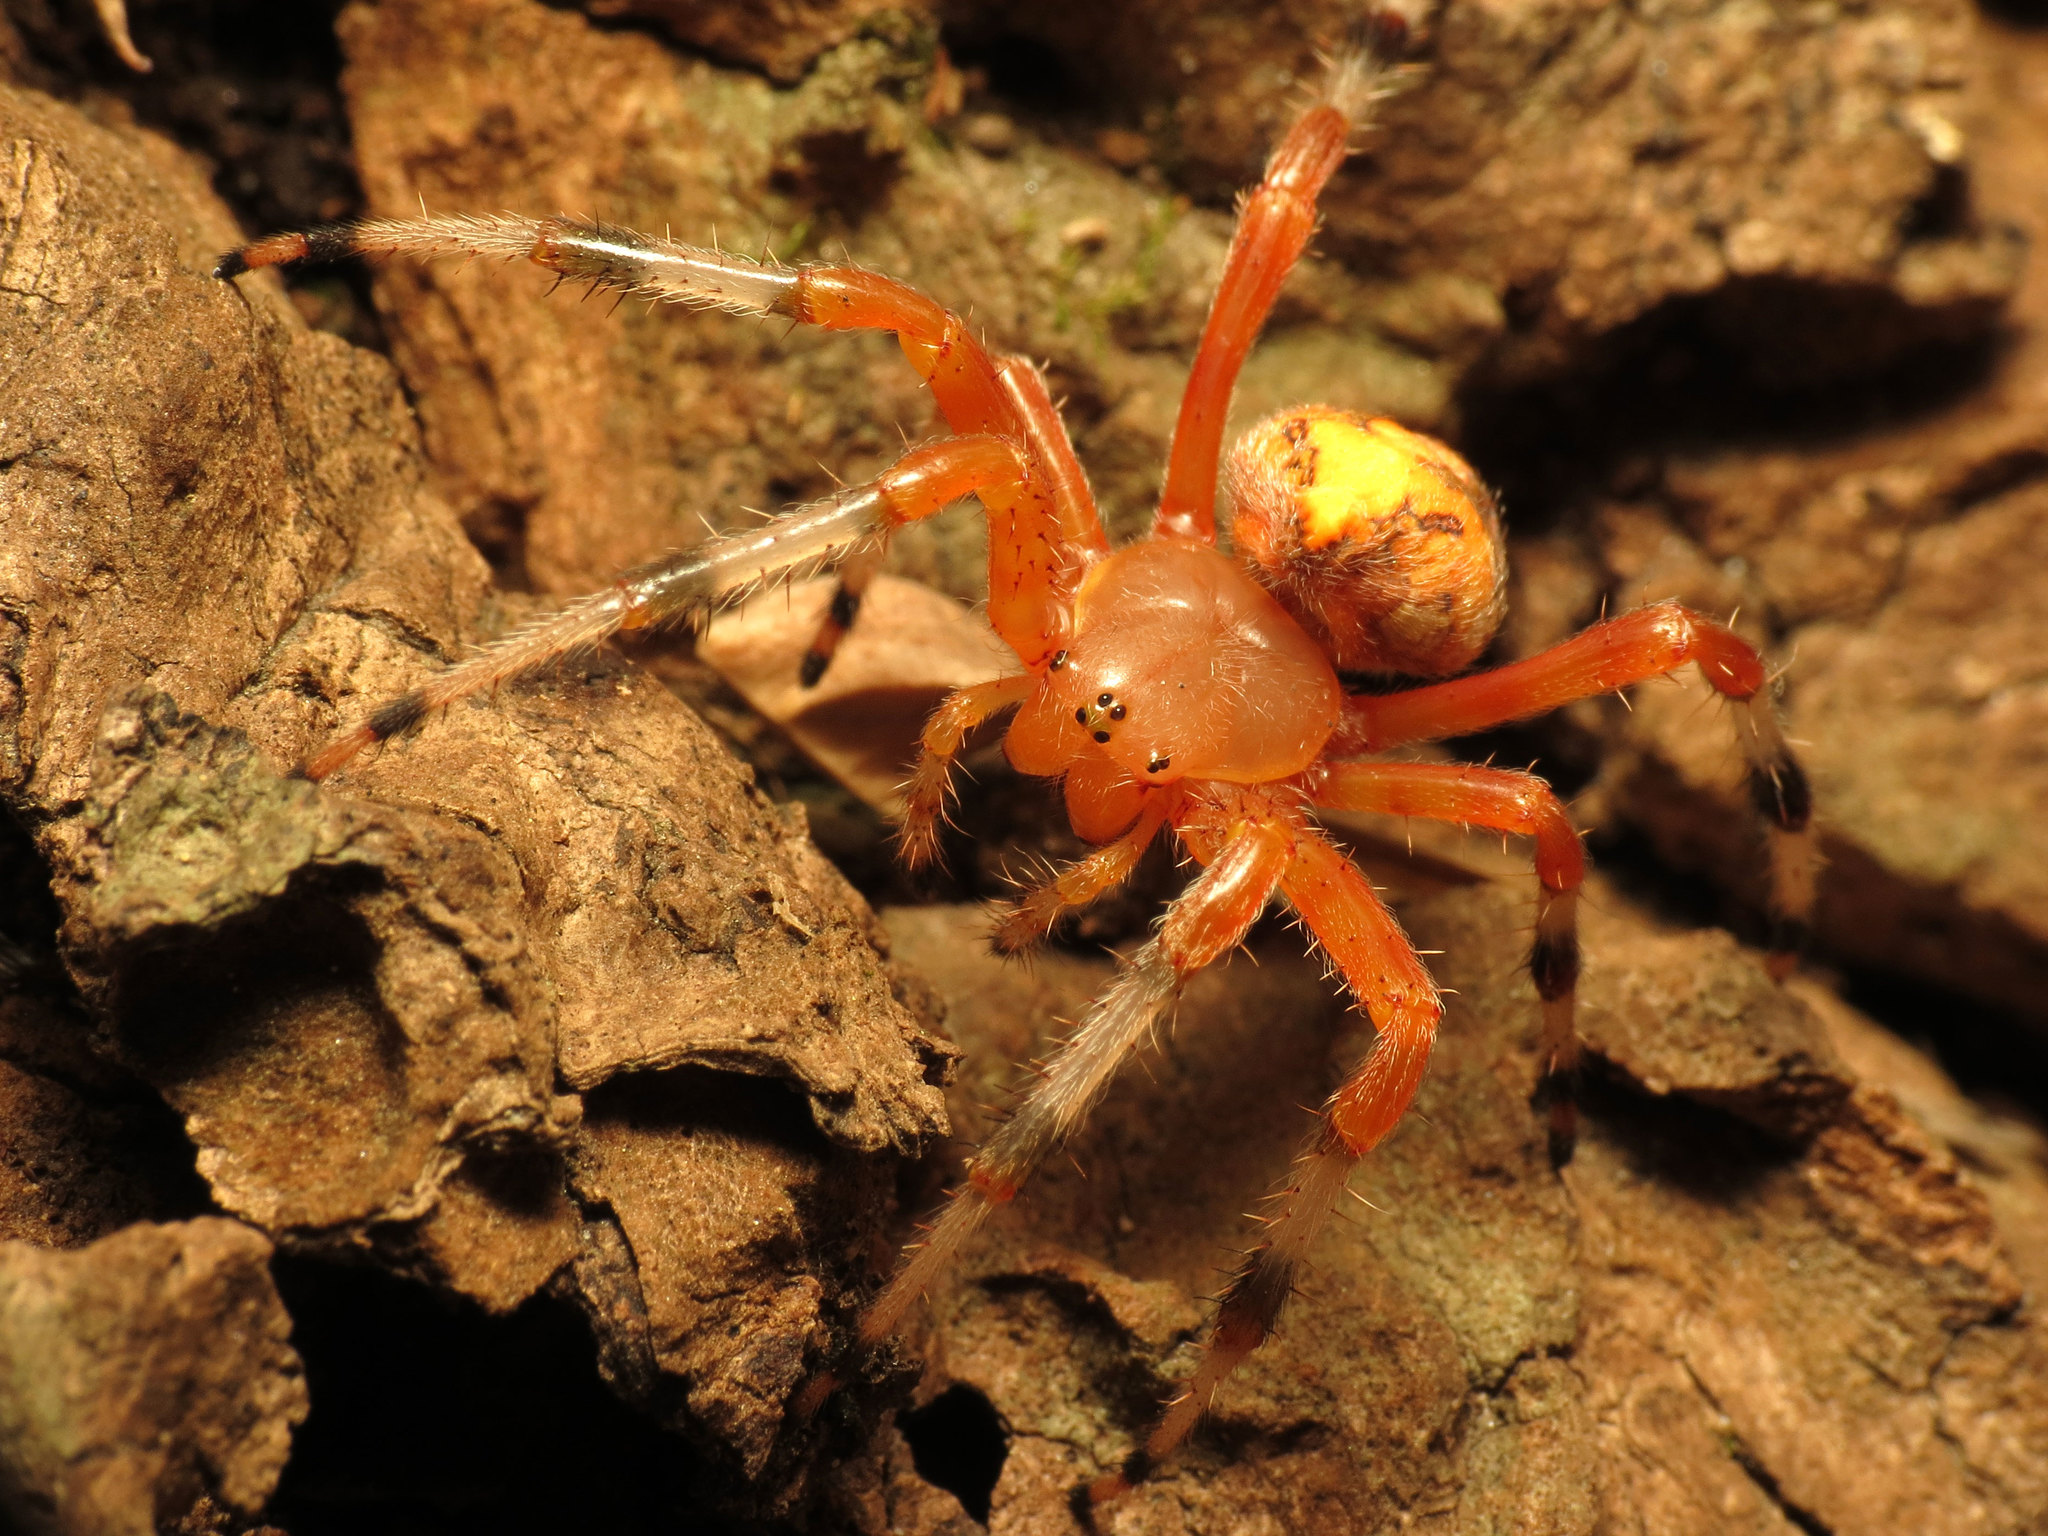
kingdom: Animalia
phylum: Arthropoda
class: Arachnida
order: Araneae
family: Araneidae
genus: Araneus
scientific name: Araneus marmoreus
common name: Marbled orbweaver
